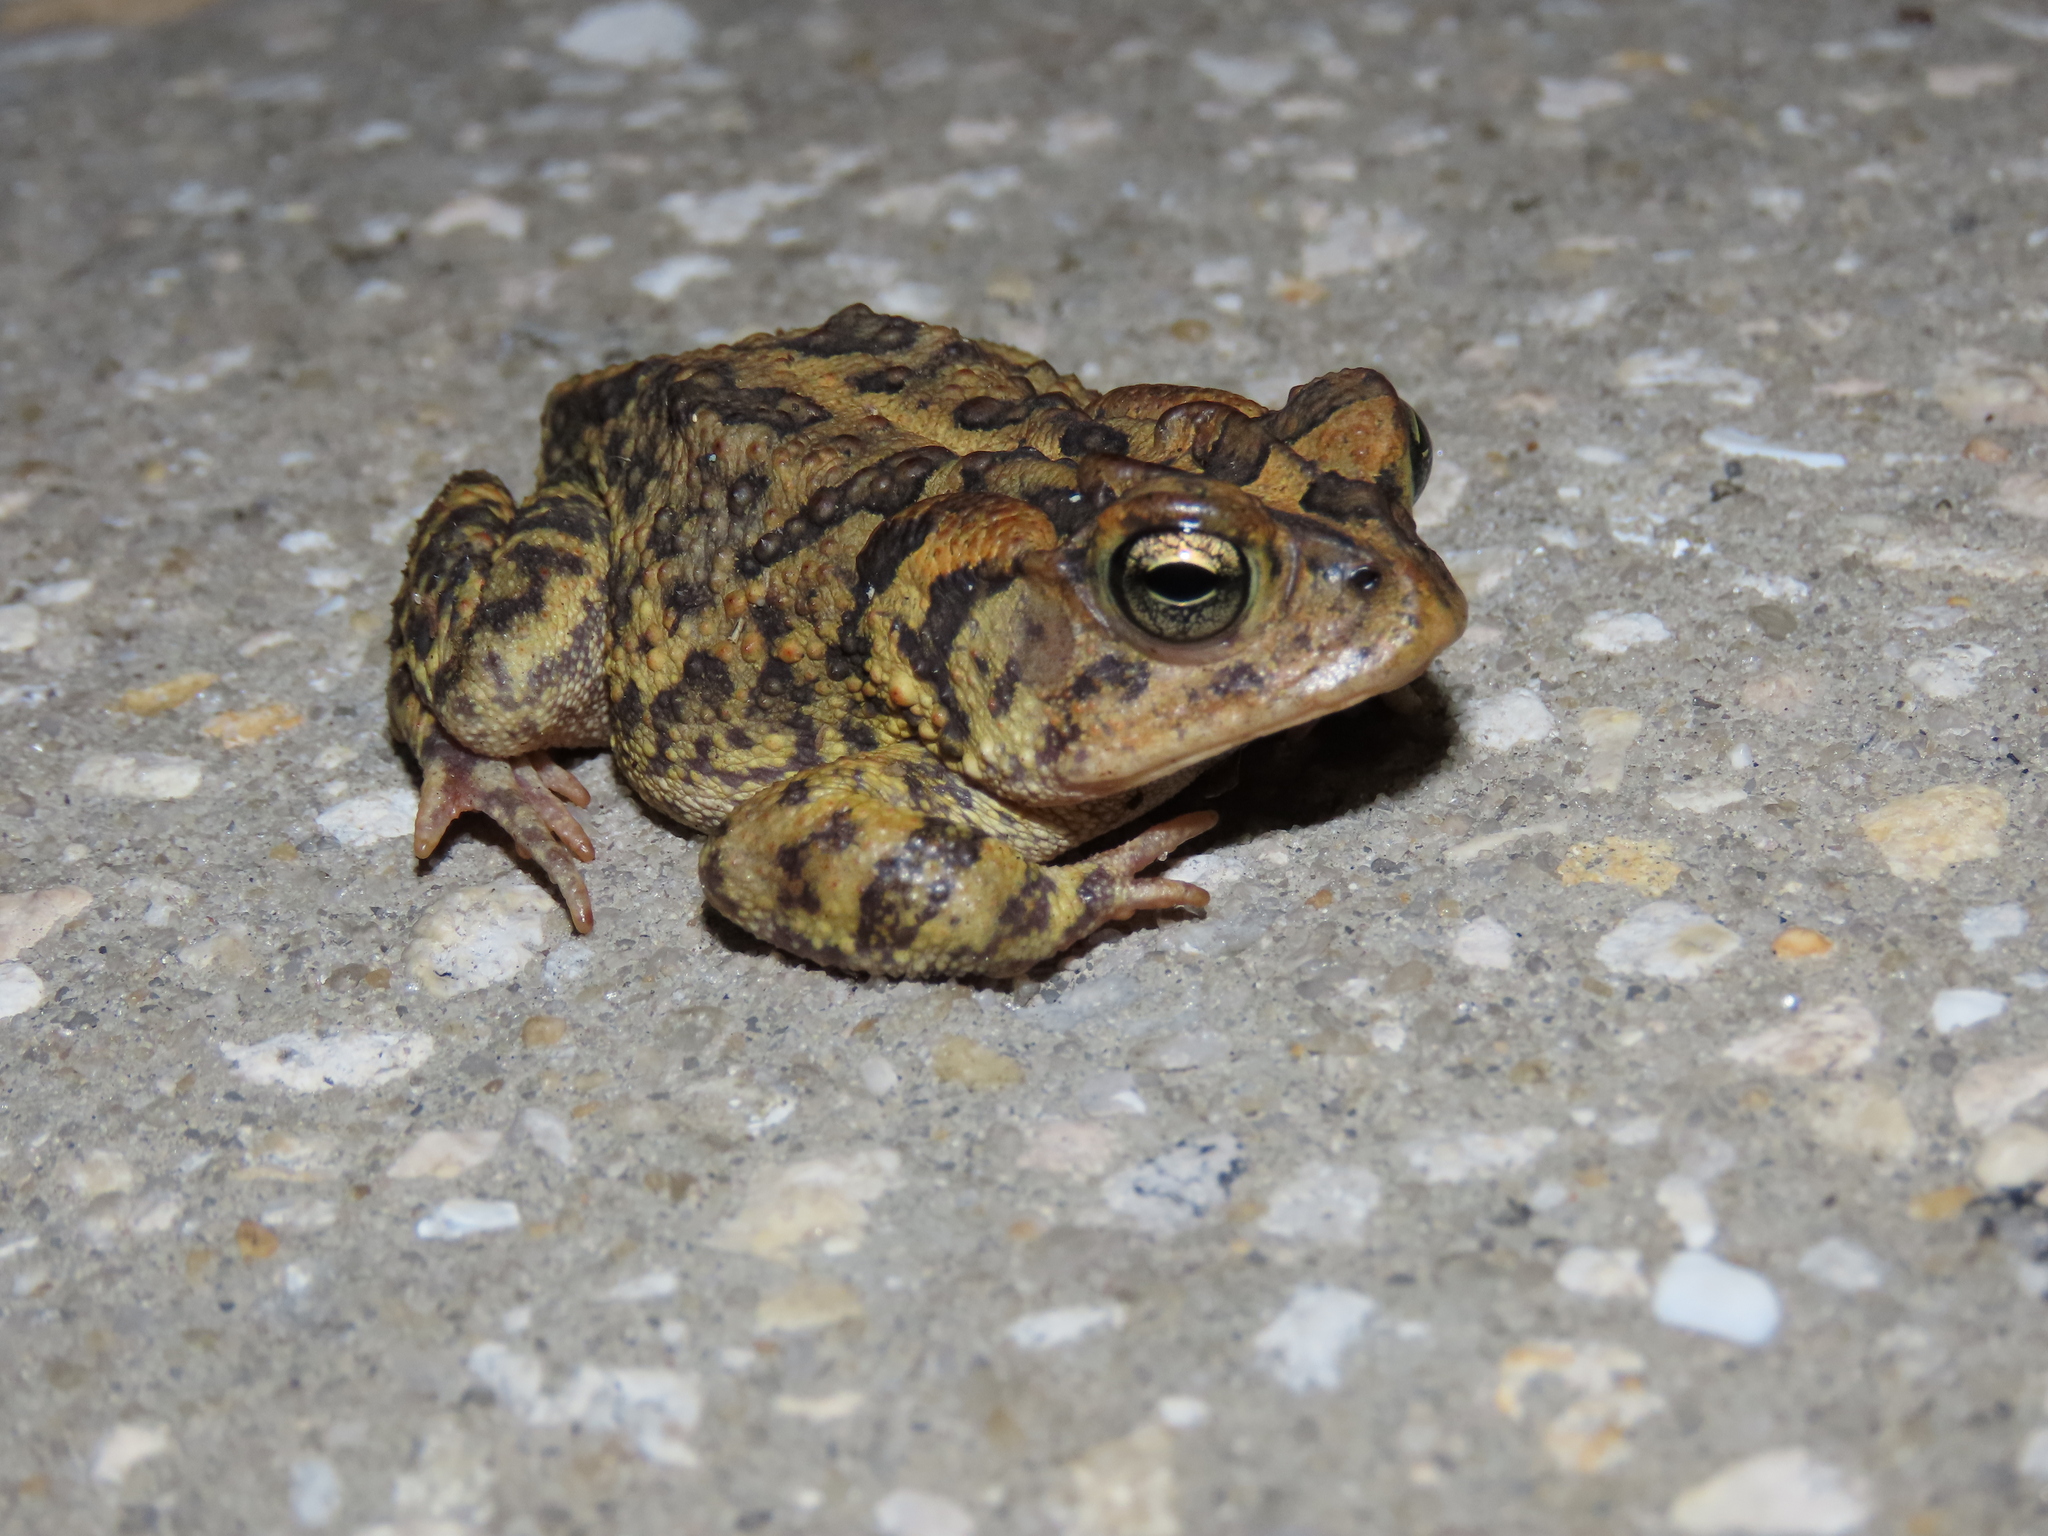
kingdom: Animalia
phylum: Chordata
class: Amphibia
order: Anura
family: Bufonidae
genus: Anaxyrus
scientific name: Anaxyrus terrestris
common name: Southern toad
